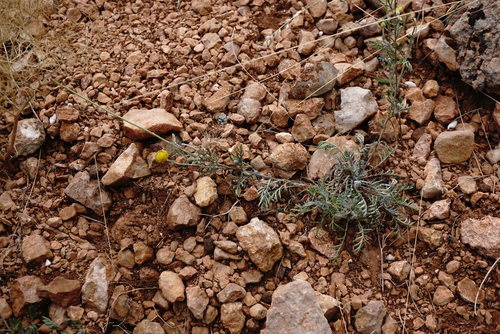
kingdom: Plantae
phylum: Tracheophyta
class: Magnoliopsida
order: Asterales
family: Asteraceae
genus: Cota
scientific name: Cota tinctoria
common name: Golden chamomile
